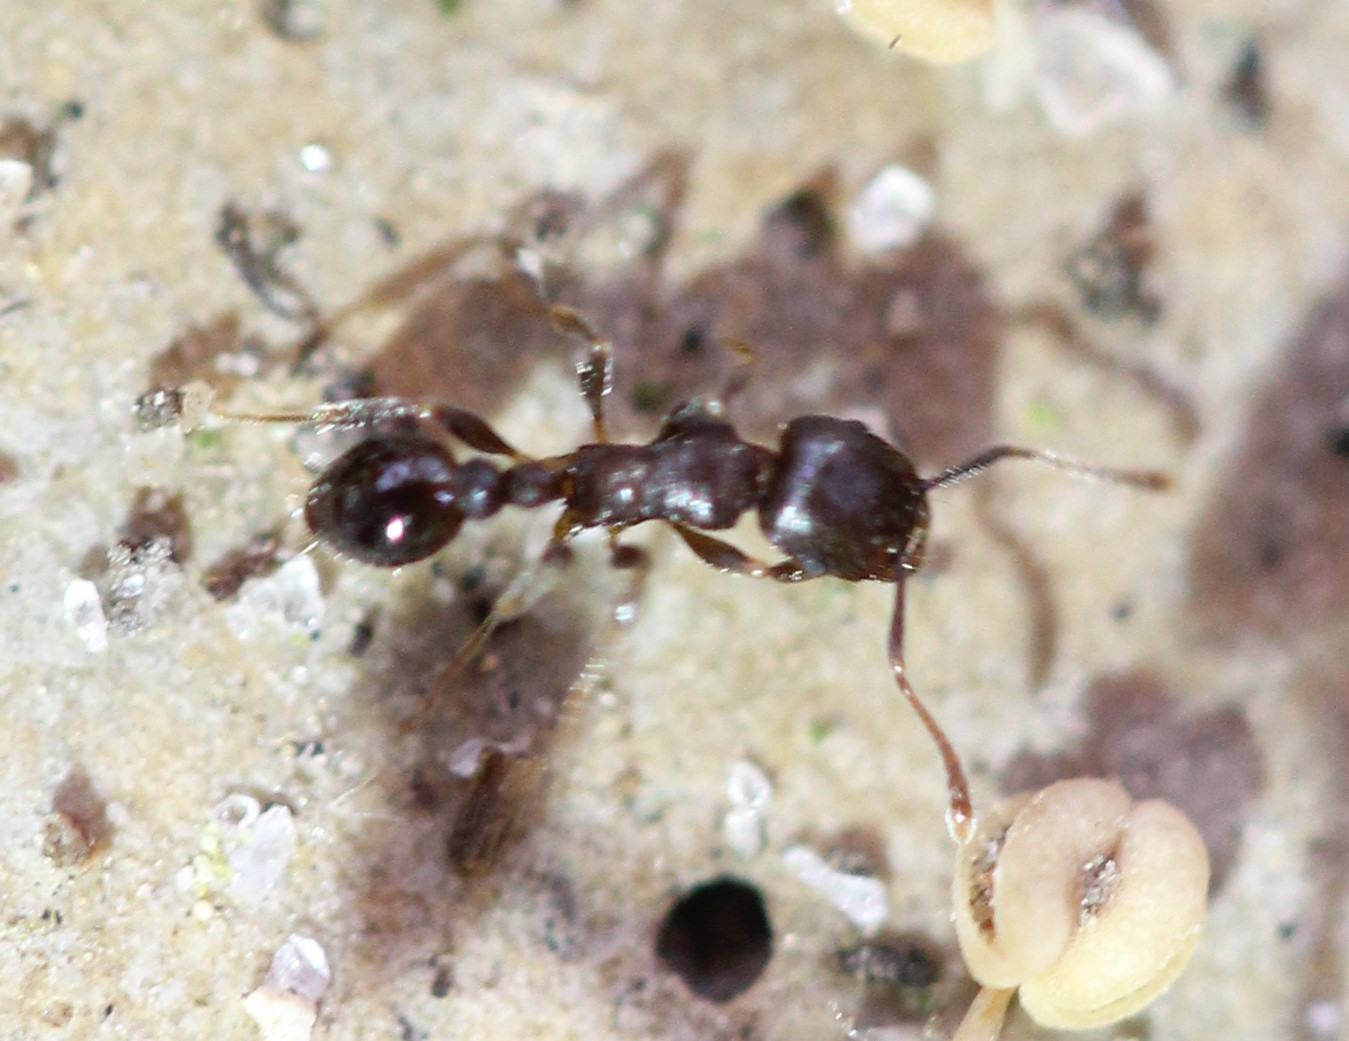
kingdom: Animalia
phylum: Arthropoda
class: Insecta
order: Hymenoptera
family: Formicidae
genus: Tetramorium
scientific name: Tetramorium immigrans
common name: Pavement ant
